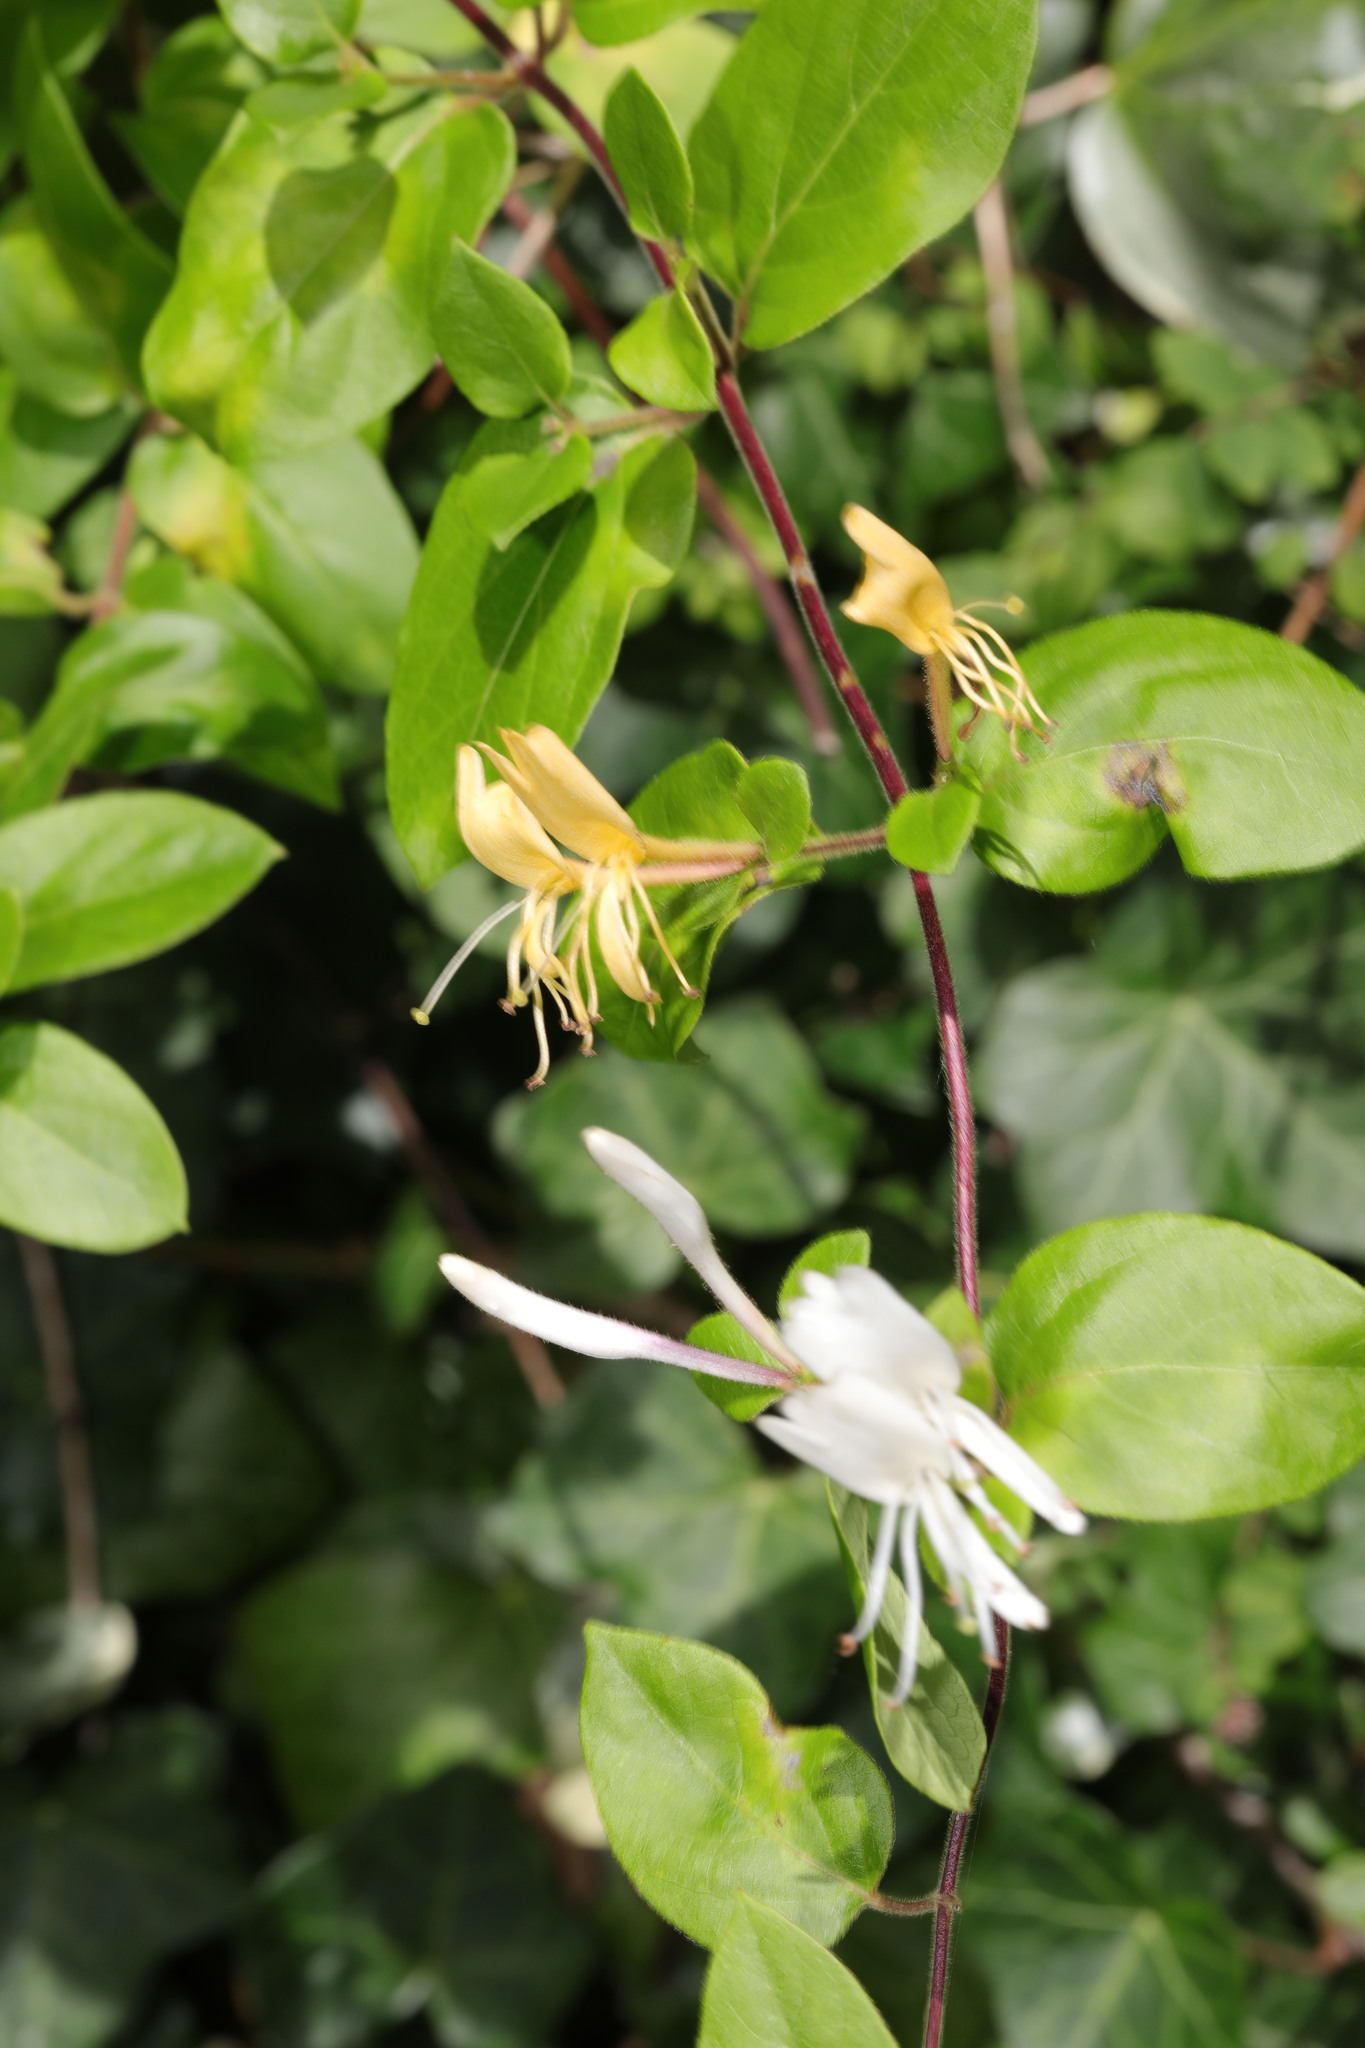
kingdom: Plantae
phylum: Tracheophyta
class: Magnoliopsida
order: Dipsacales
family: Caprifoliaceae
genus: Lonicera
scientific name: Lonicera japonica
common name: Japanese honeysuckle
